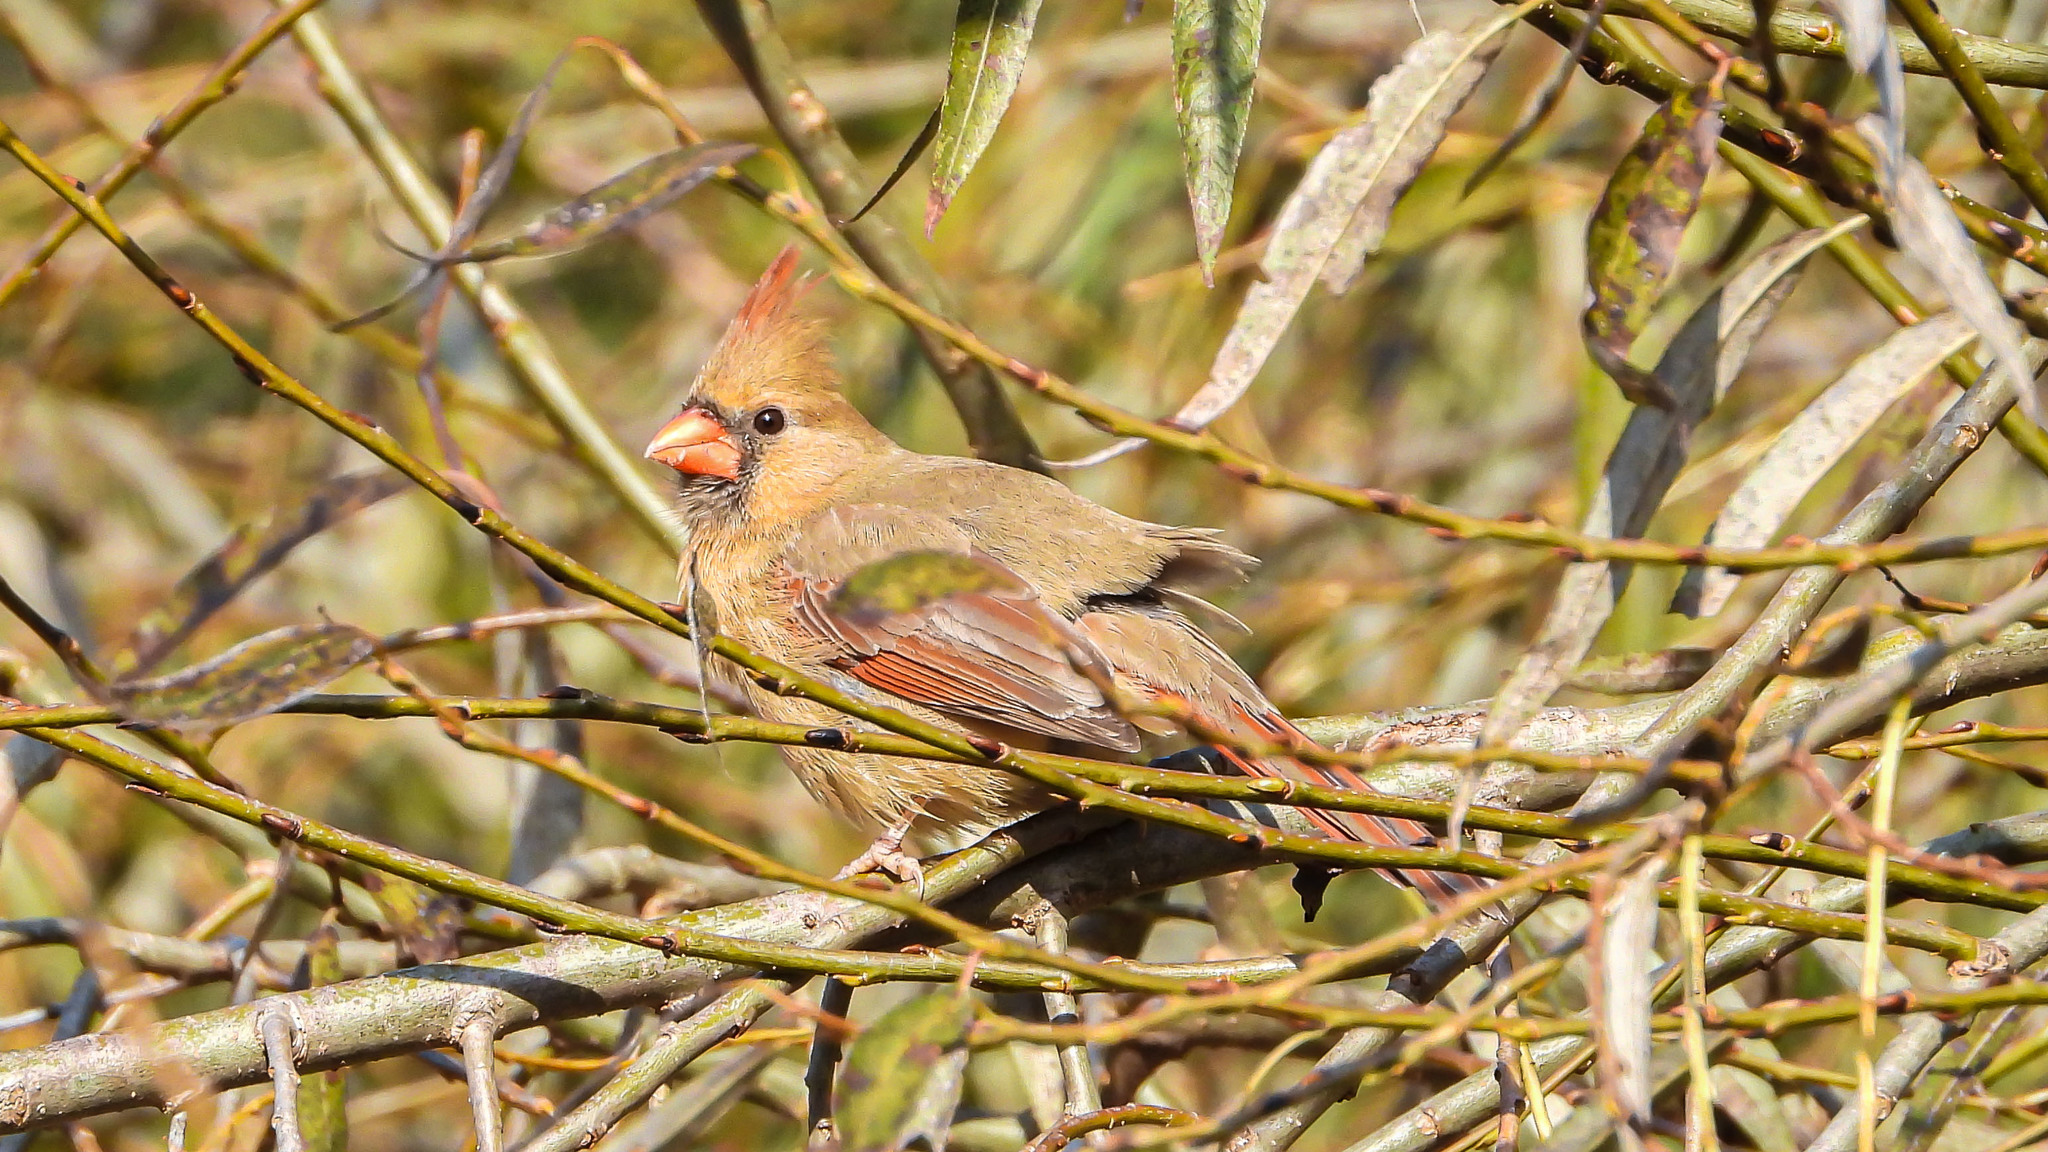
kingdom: Animalia
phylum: Chordata
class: Aves
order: Passeriformes
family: Cardinalidae
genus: Cardinalis
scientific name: Cardinalis cardinalis
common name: Northern cardinal
